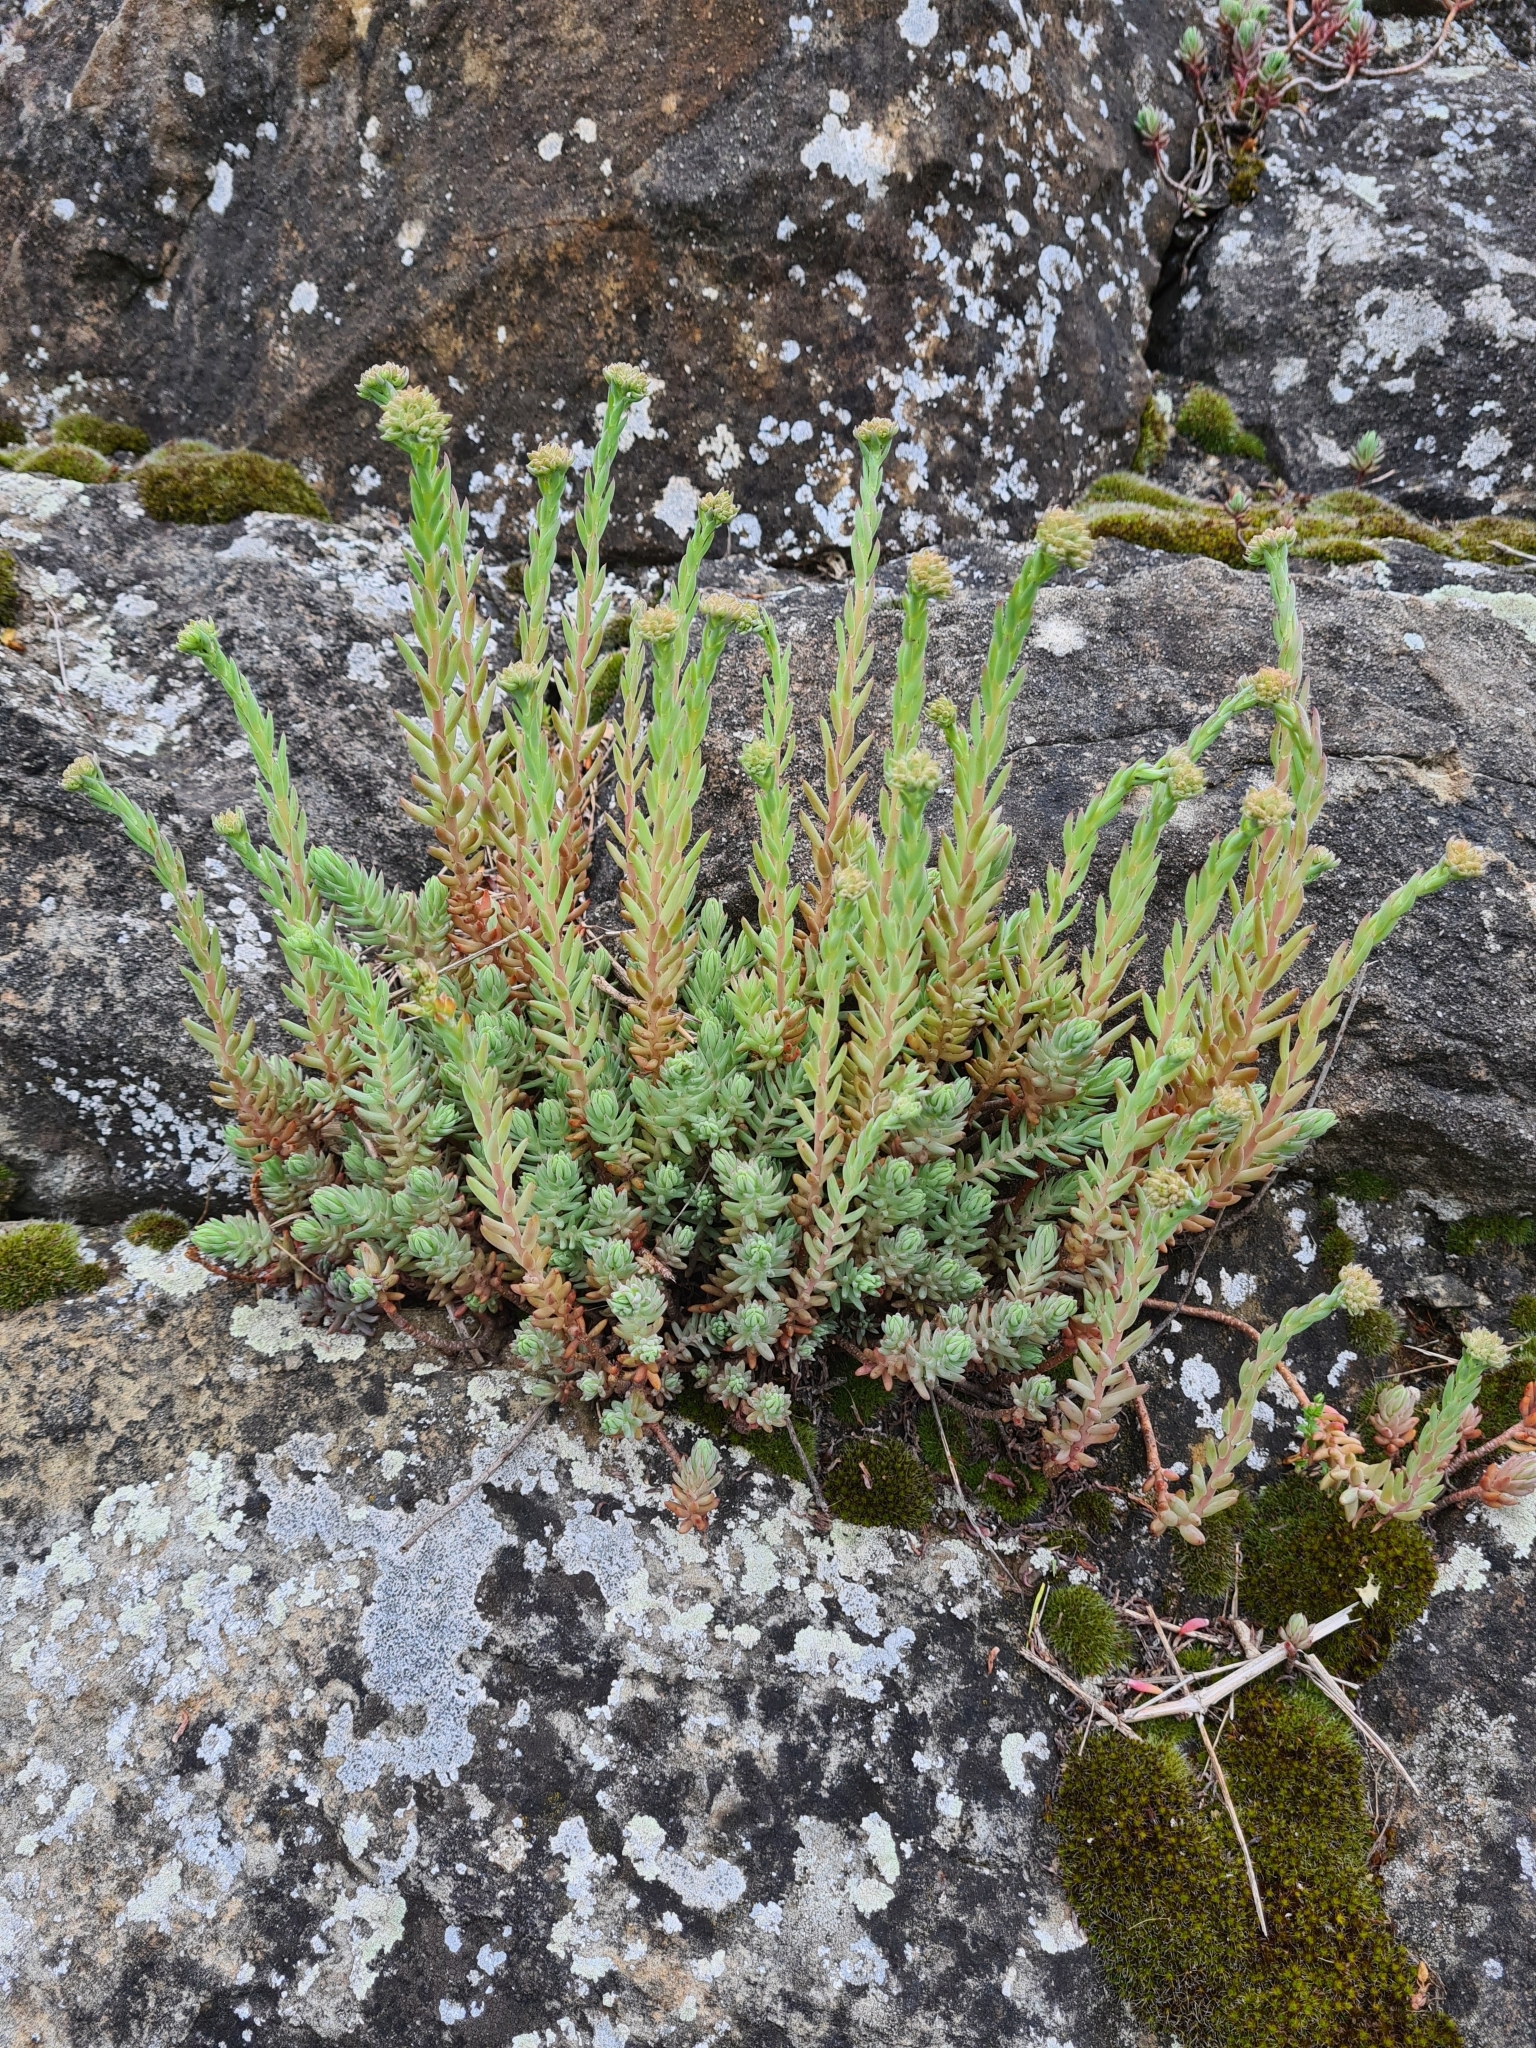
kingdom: Plantae
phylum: Tracheophyta
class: Magnoliopsida
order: Saxifragales
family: Crassulaceae
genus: Petrosedum
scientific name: Petrosedum orientale
